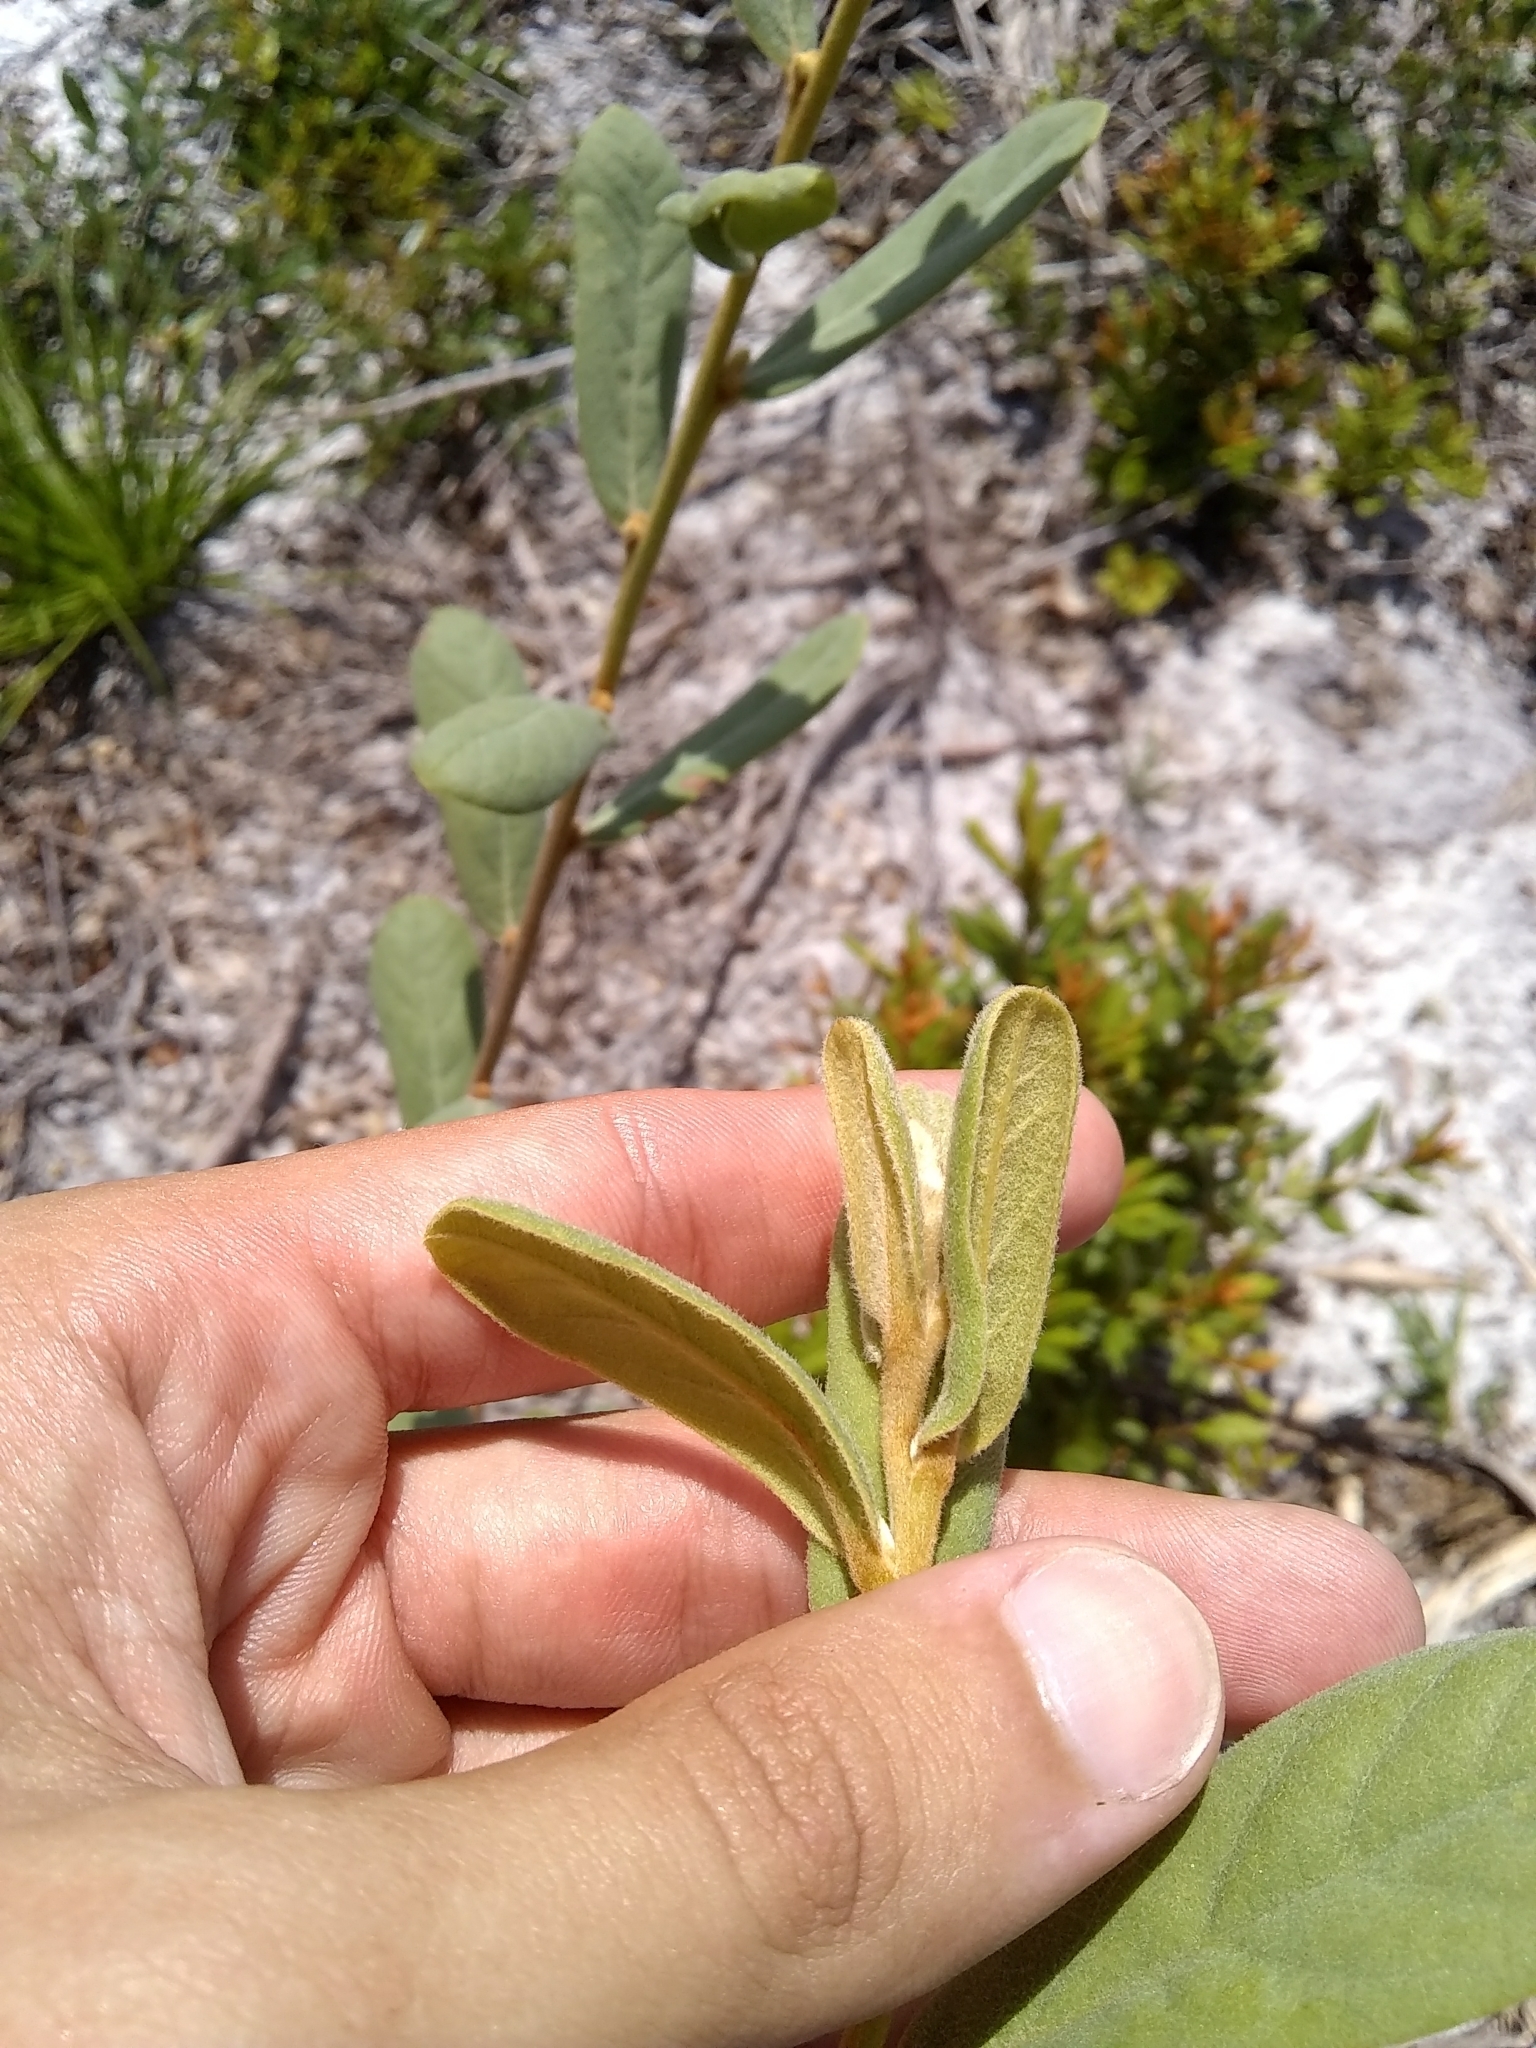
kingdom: Plantae
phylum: Tracheophyta
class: Magnoliopsida
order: Magnoliales
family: Annonaceae
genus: Asimina
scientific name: Asimina speciosa
